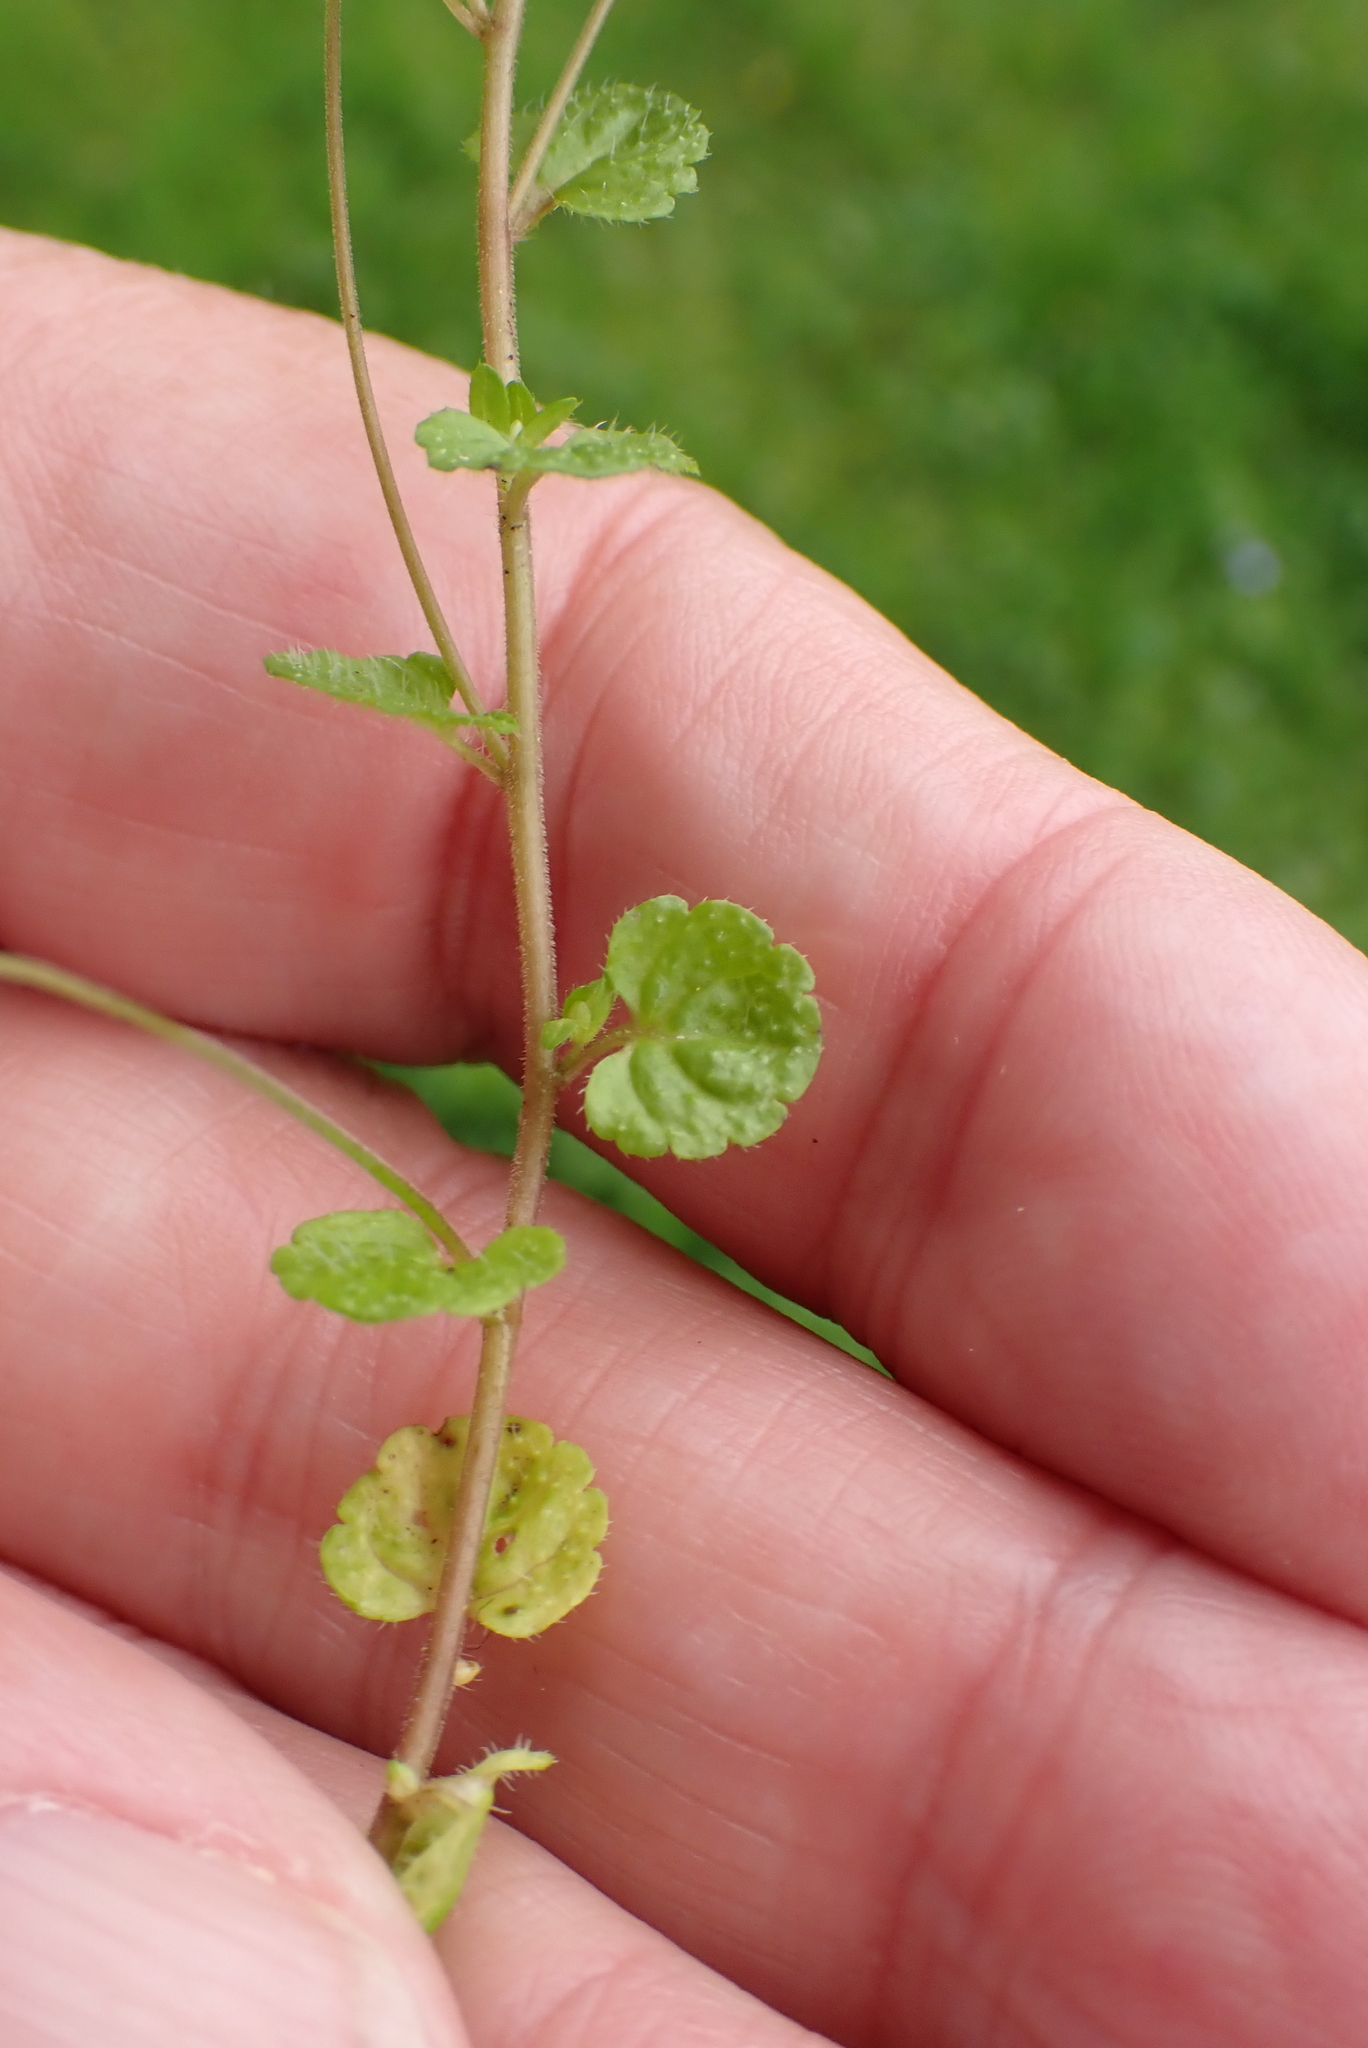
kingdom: Plantae
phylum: Tracheophyta
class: Magnoliopsida
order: Lamiales
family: Plantaginaceae
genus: Veronica
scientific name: Veronica filiformis
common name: Slender speedwell
